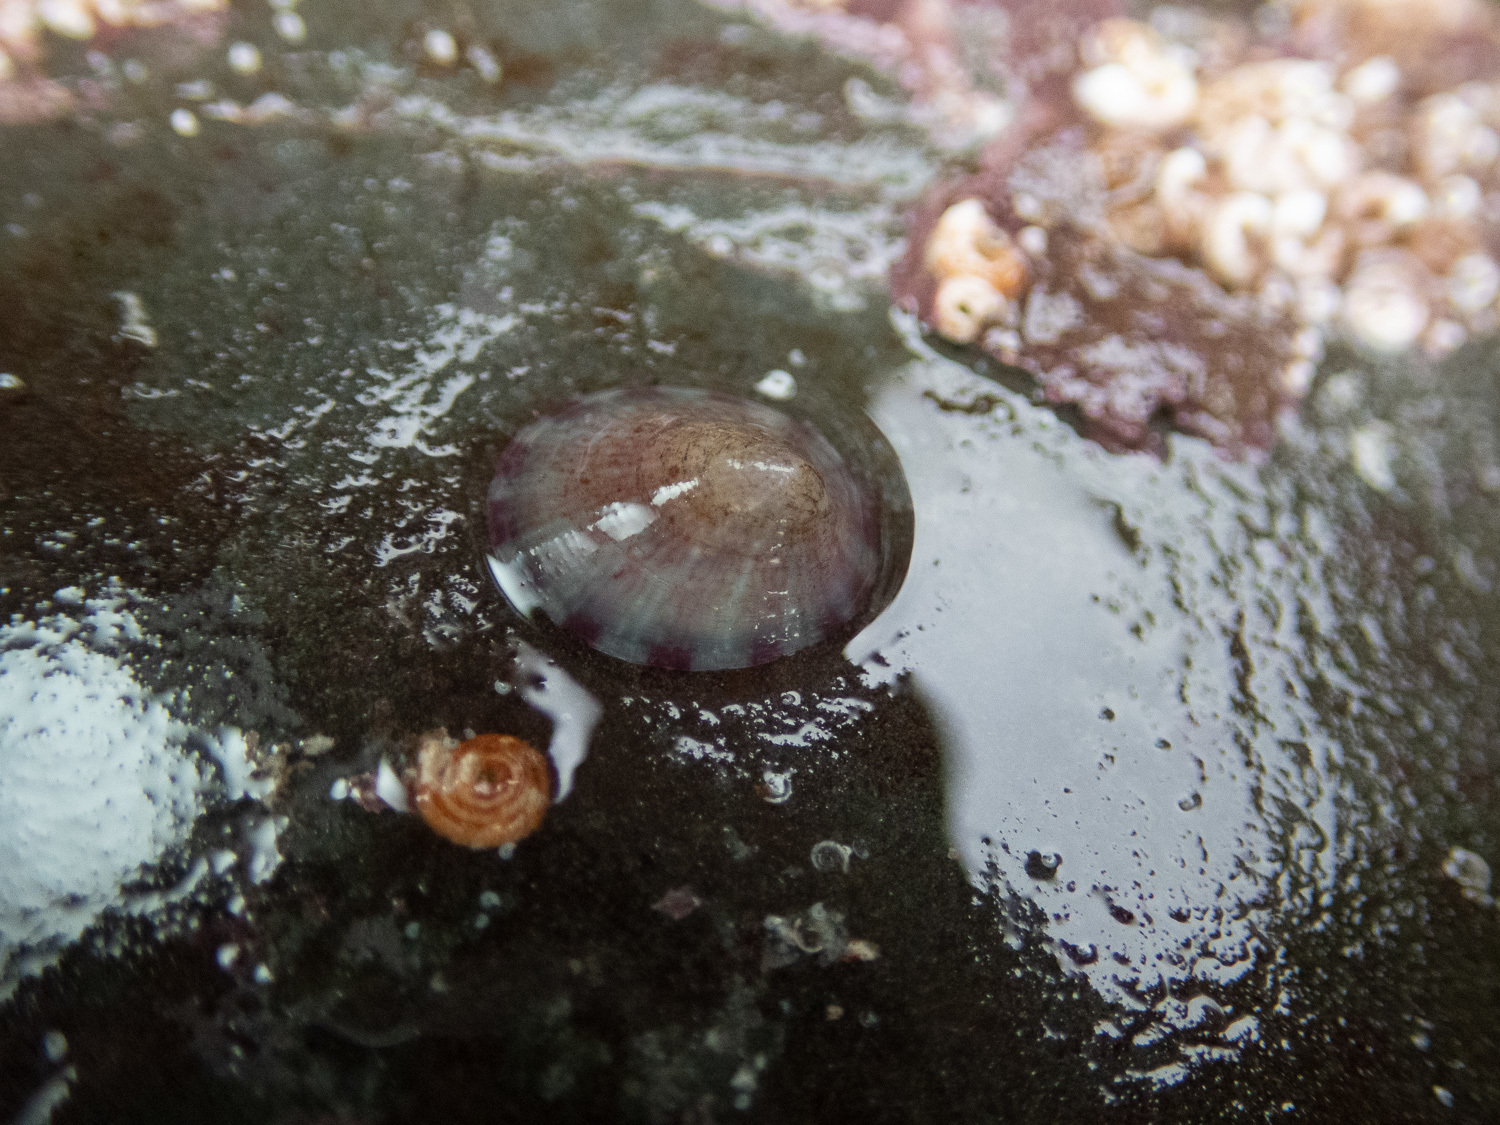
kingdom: Animalia
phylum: Mollusca
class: Gastropoda
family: Lottiidae
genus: Tectura
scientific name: Tectura virginea
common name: White tortoiseshell limpet
